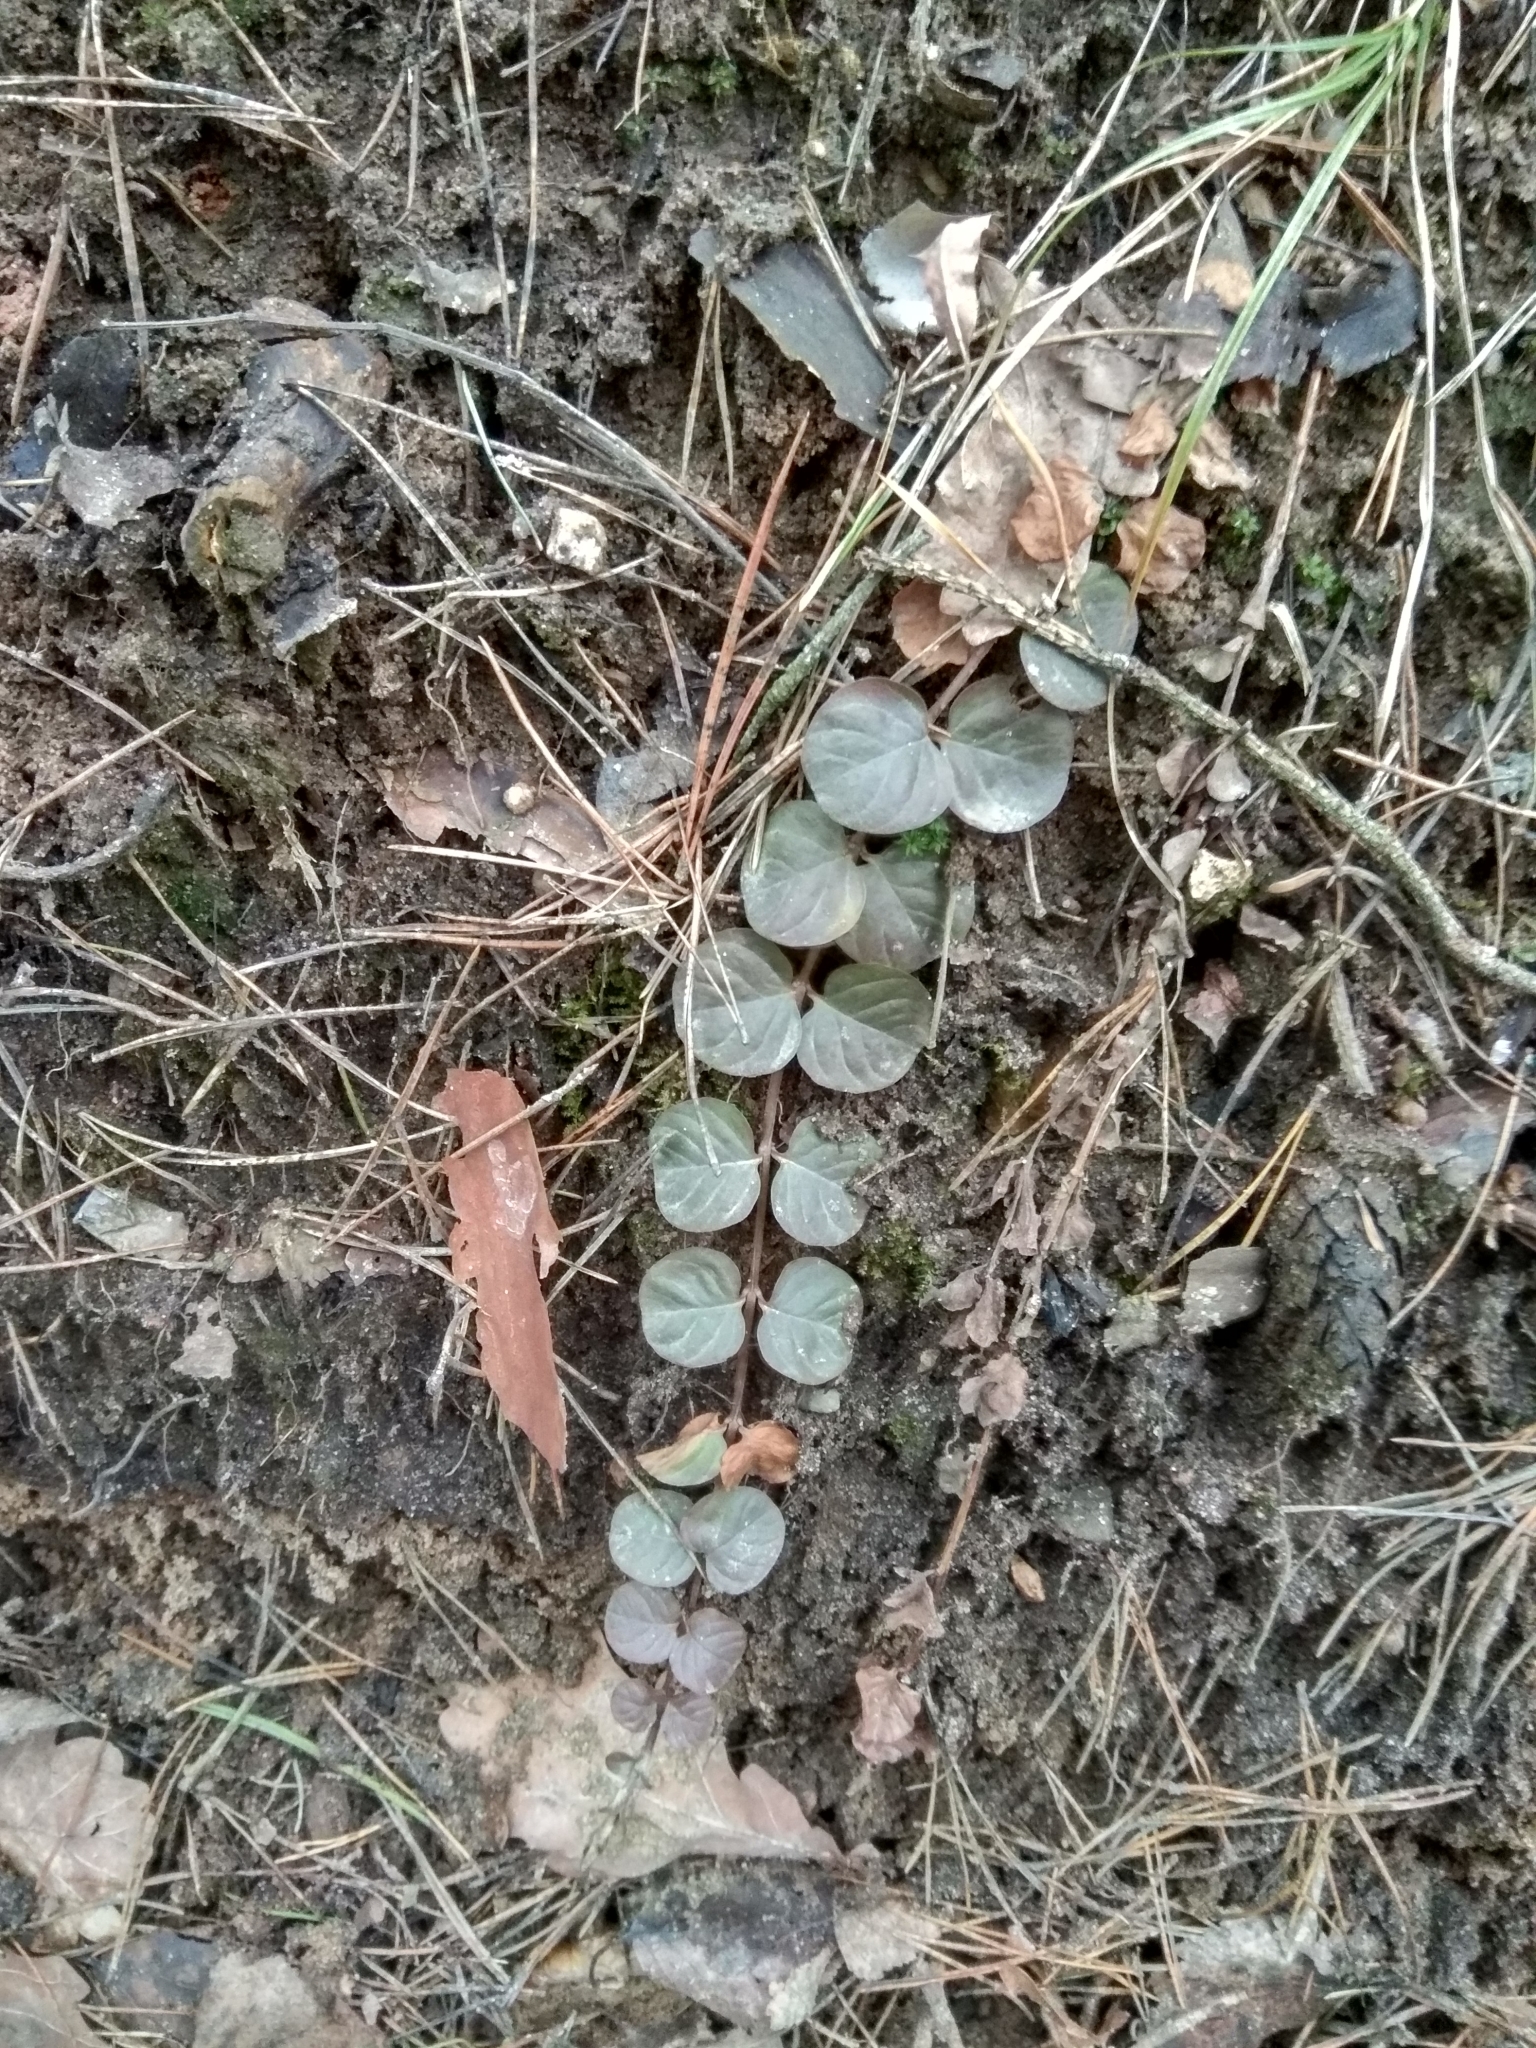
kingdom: Plantae
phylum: Tracheophyta
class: Magnoliopsida
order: Ericales
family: Primulaceae
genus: Lysimachia
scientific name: Lysimachia nummularia
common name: Moneywort
